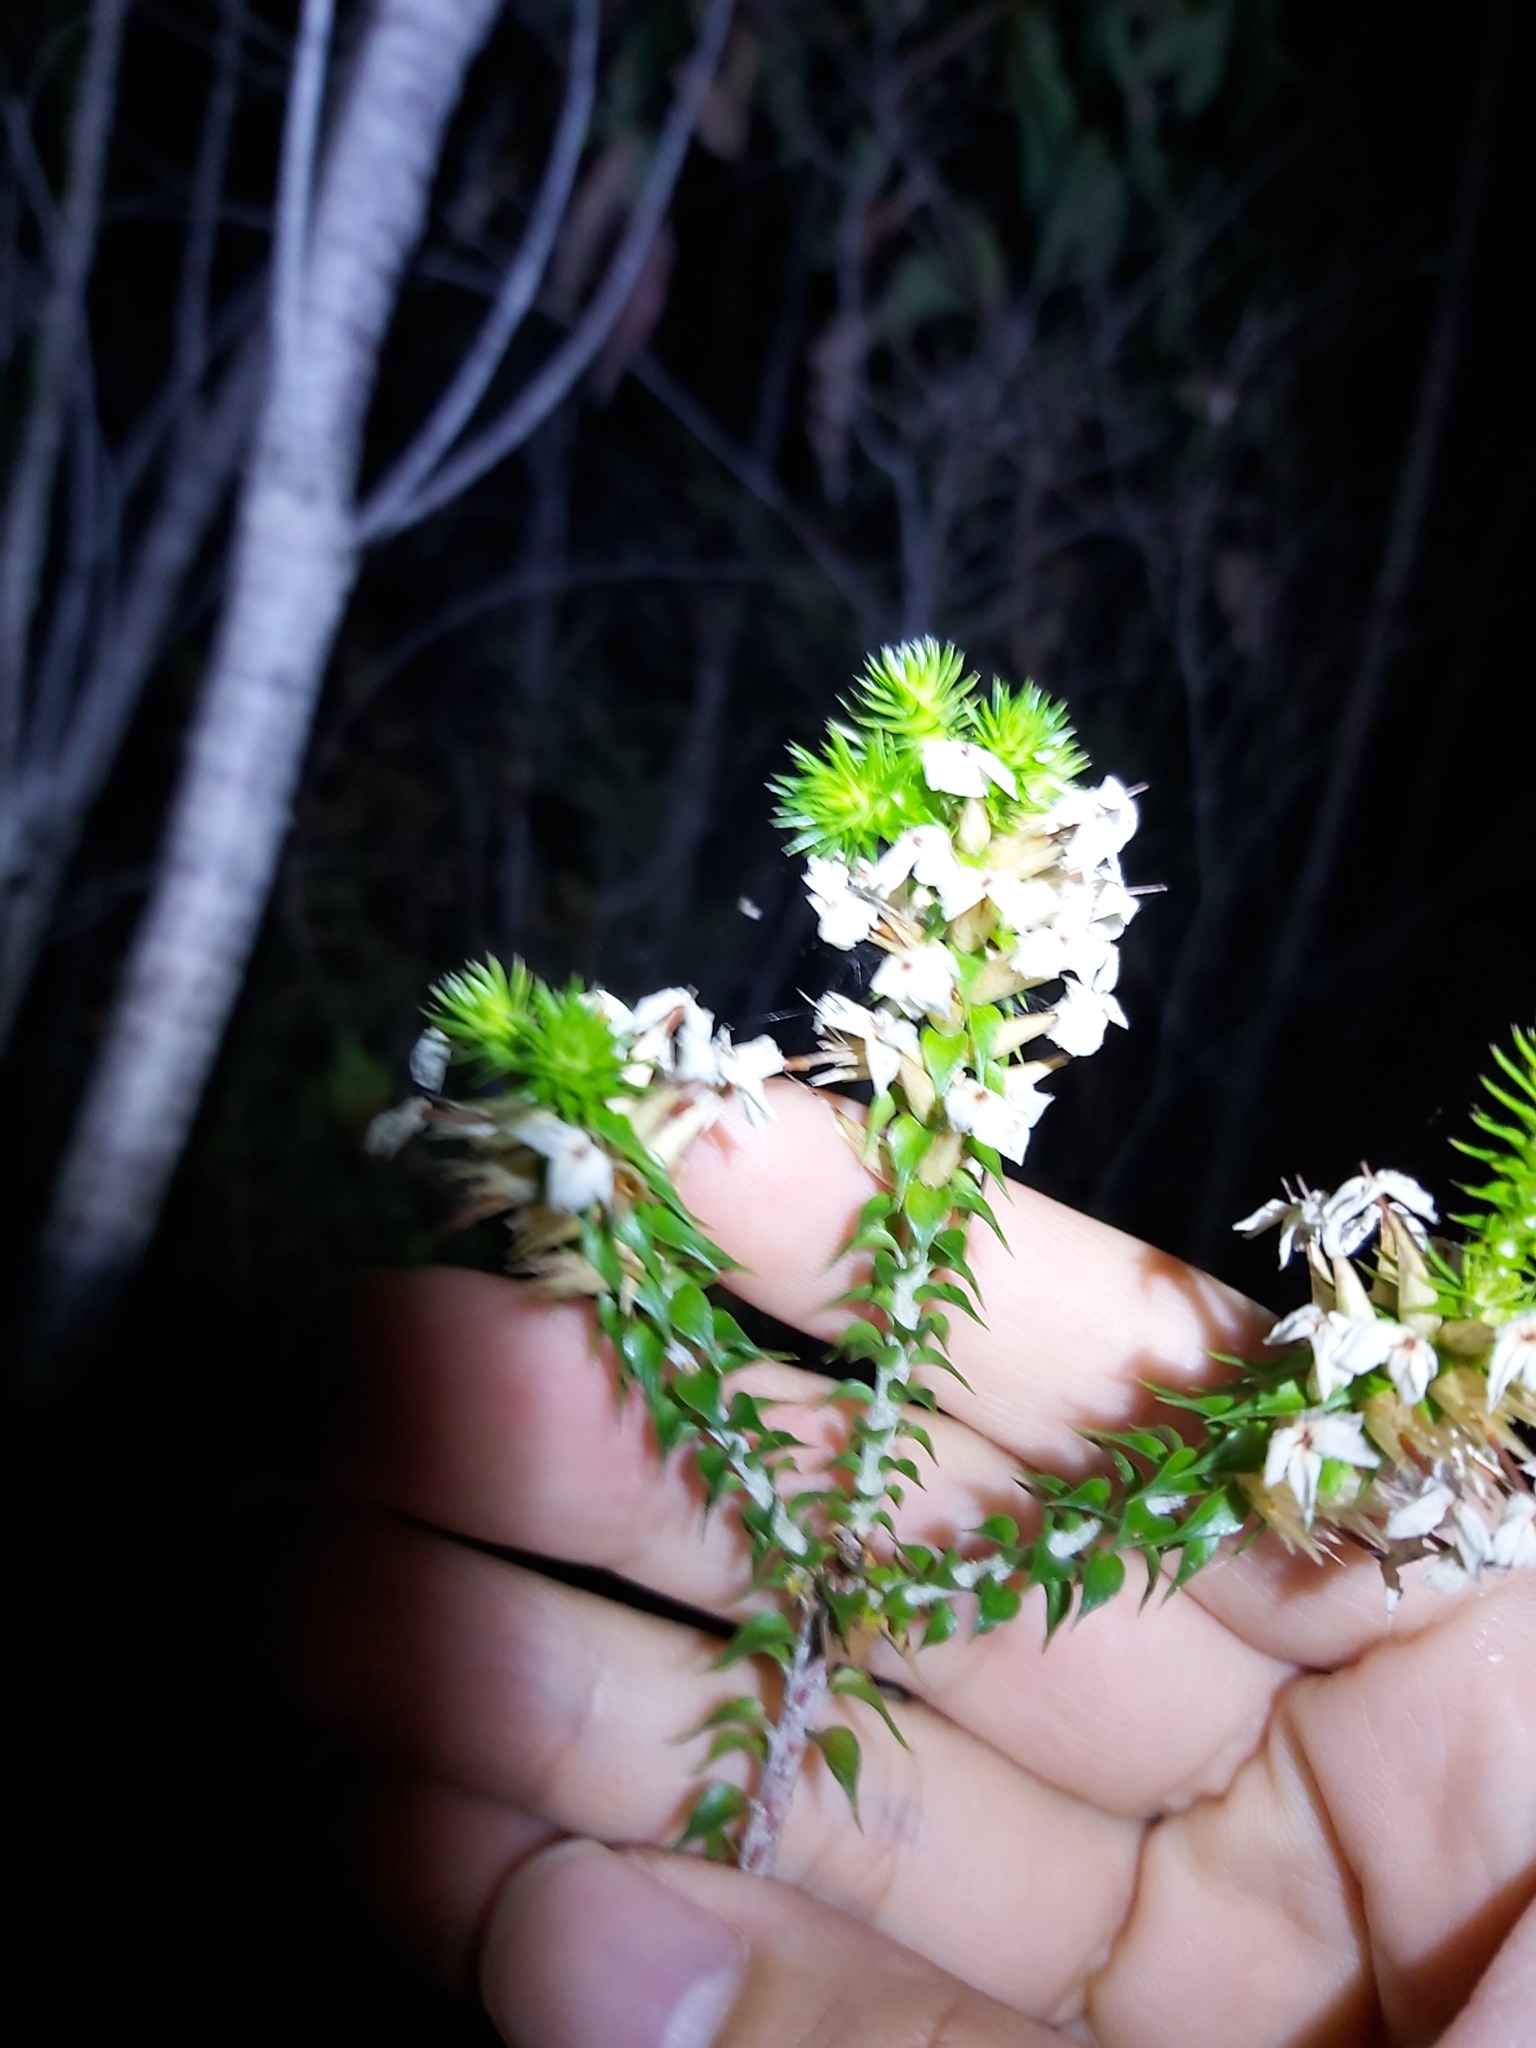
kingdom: Plantae
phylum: Tracheophyta
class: Magnoliopsida
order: Ericales
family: Ericaceae
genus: Woollsia
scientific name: Woollsia pungens
